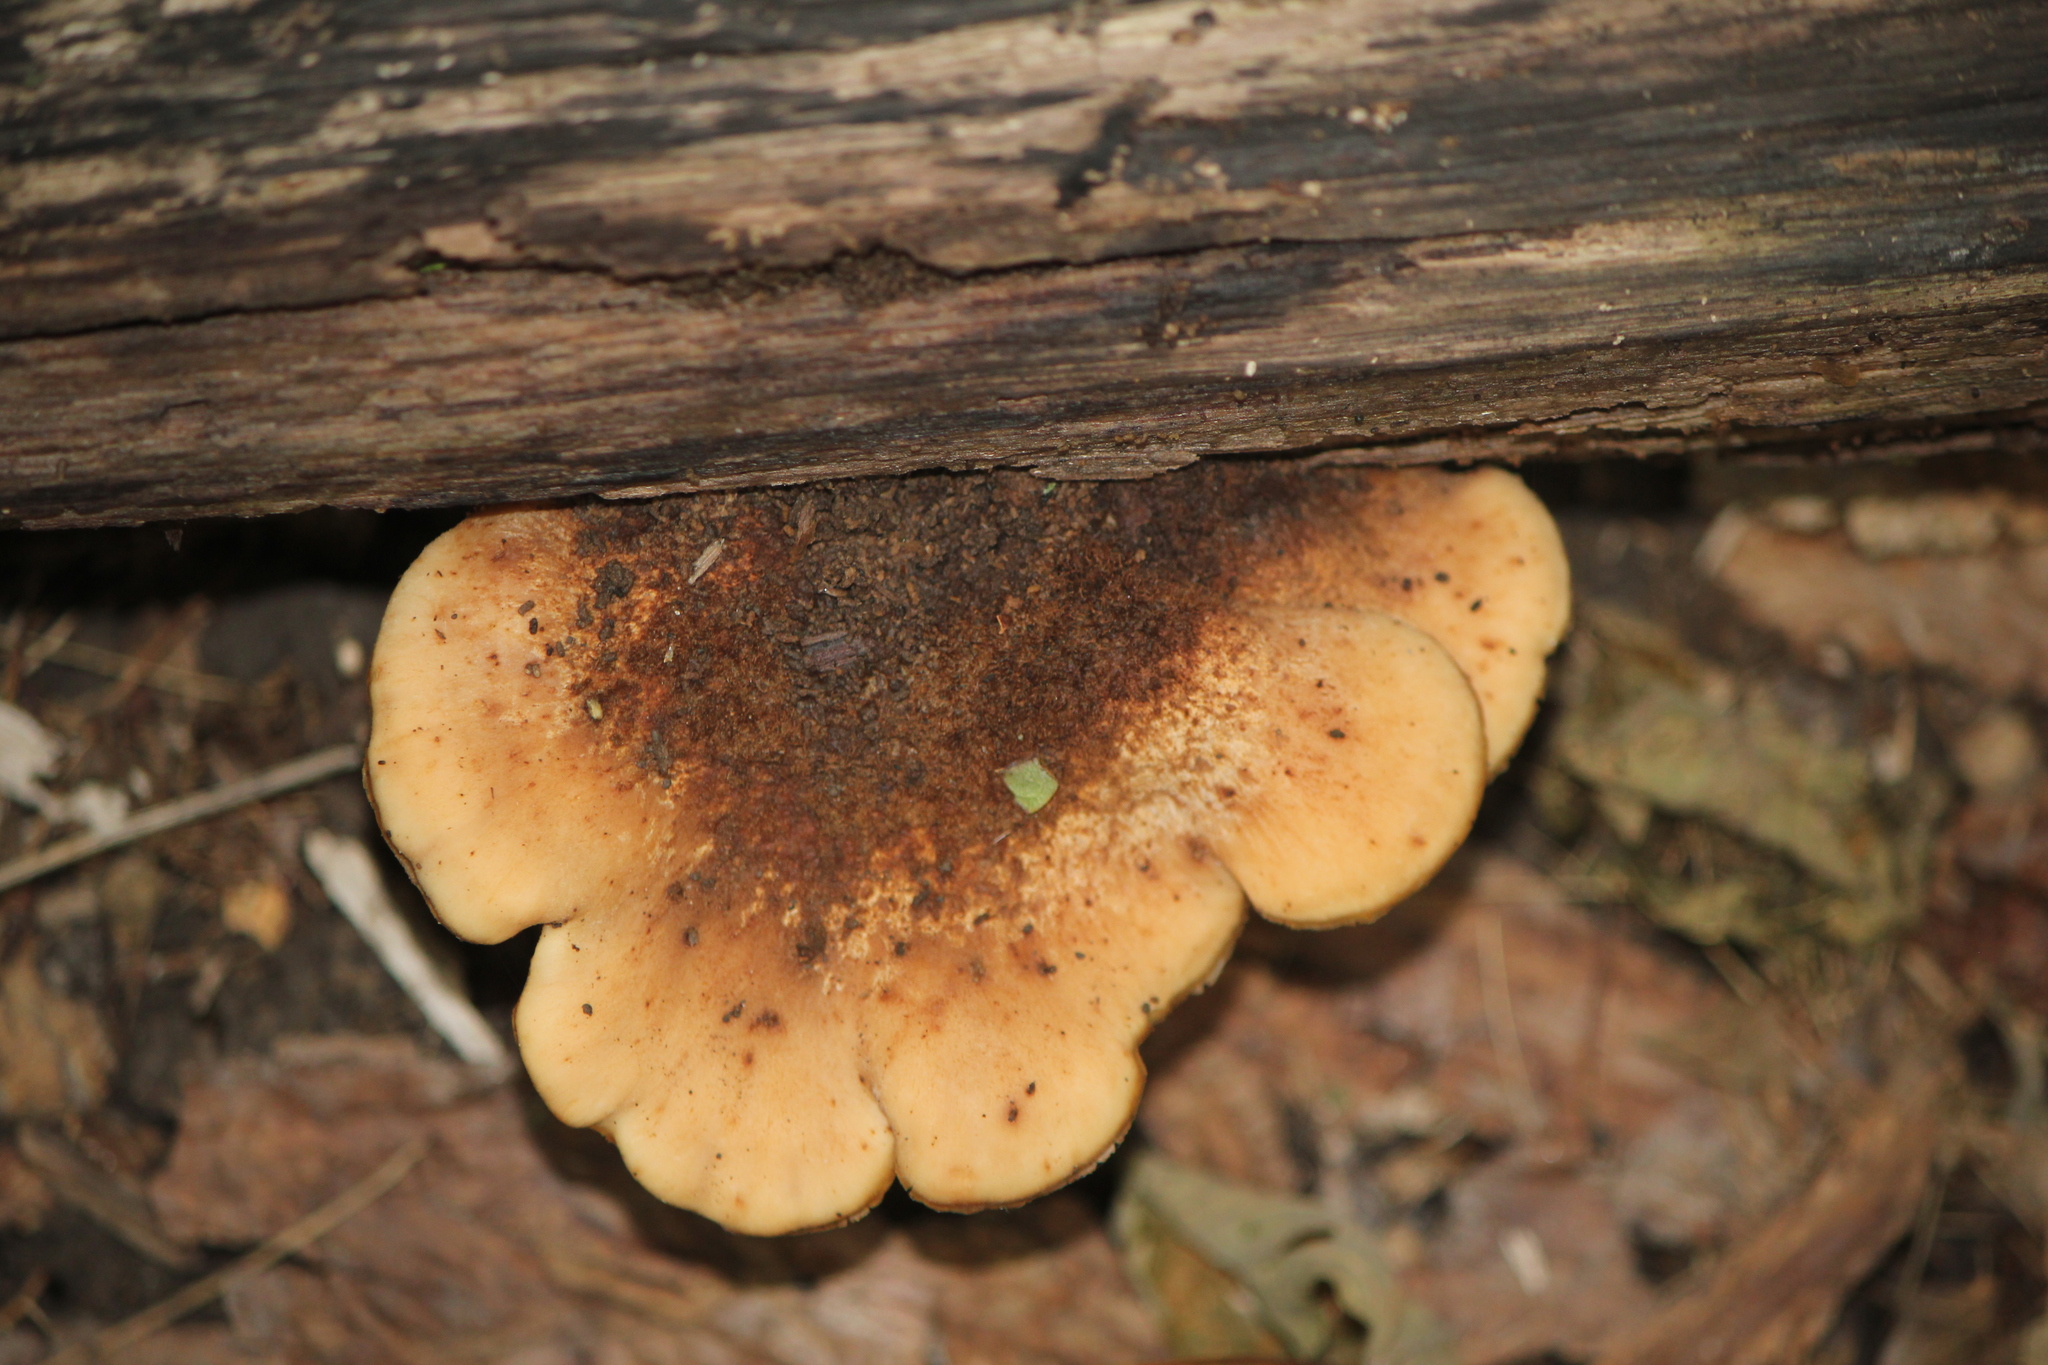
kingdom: Fungi
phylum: Basidiomycota
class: Agaricomycetes
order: Russulales
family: Auriscalpiaceae
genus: Lentinellus
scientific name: Lentinellus ursinus
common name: Bear lentinus
